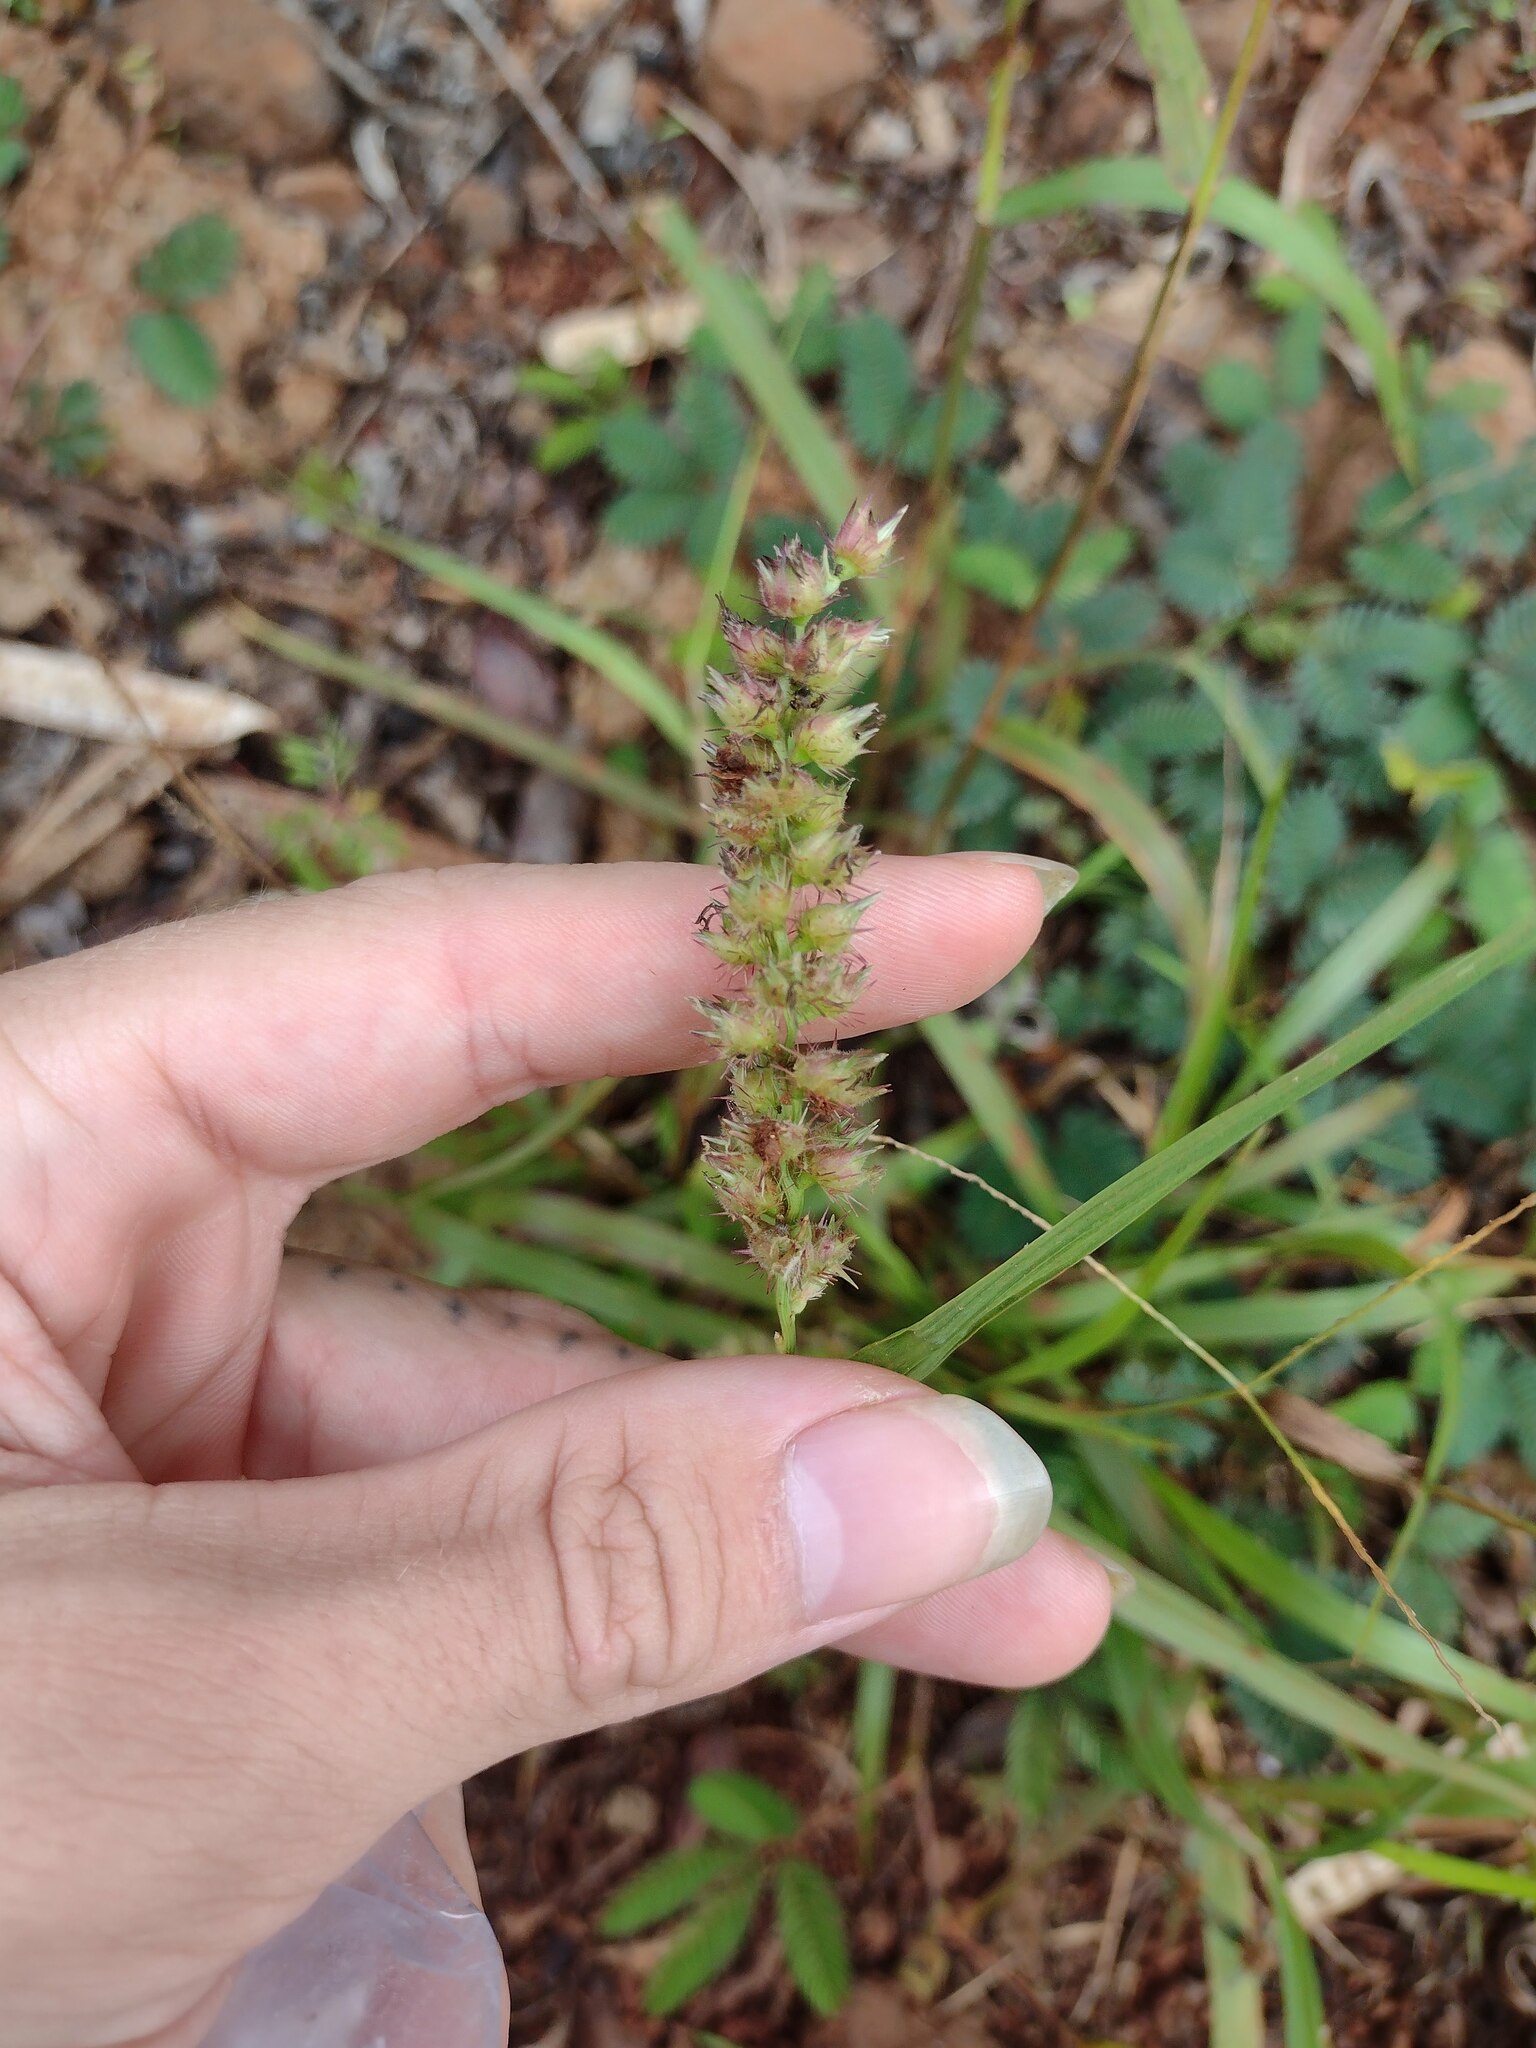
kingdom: Plantae
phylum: Tracheophyta
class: Liliopsida
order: Poales
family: Poaceae
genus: Cenchrus
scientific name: Cenchrus echinatus
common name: Southern sandbur
